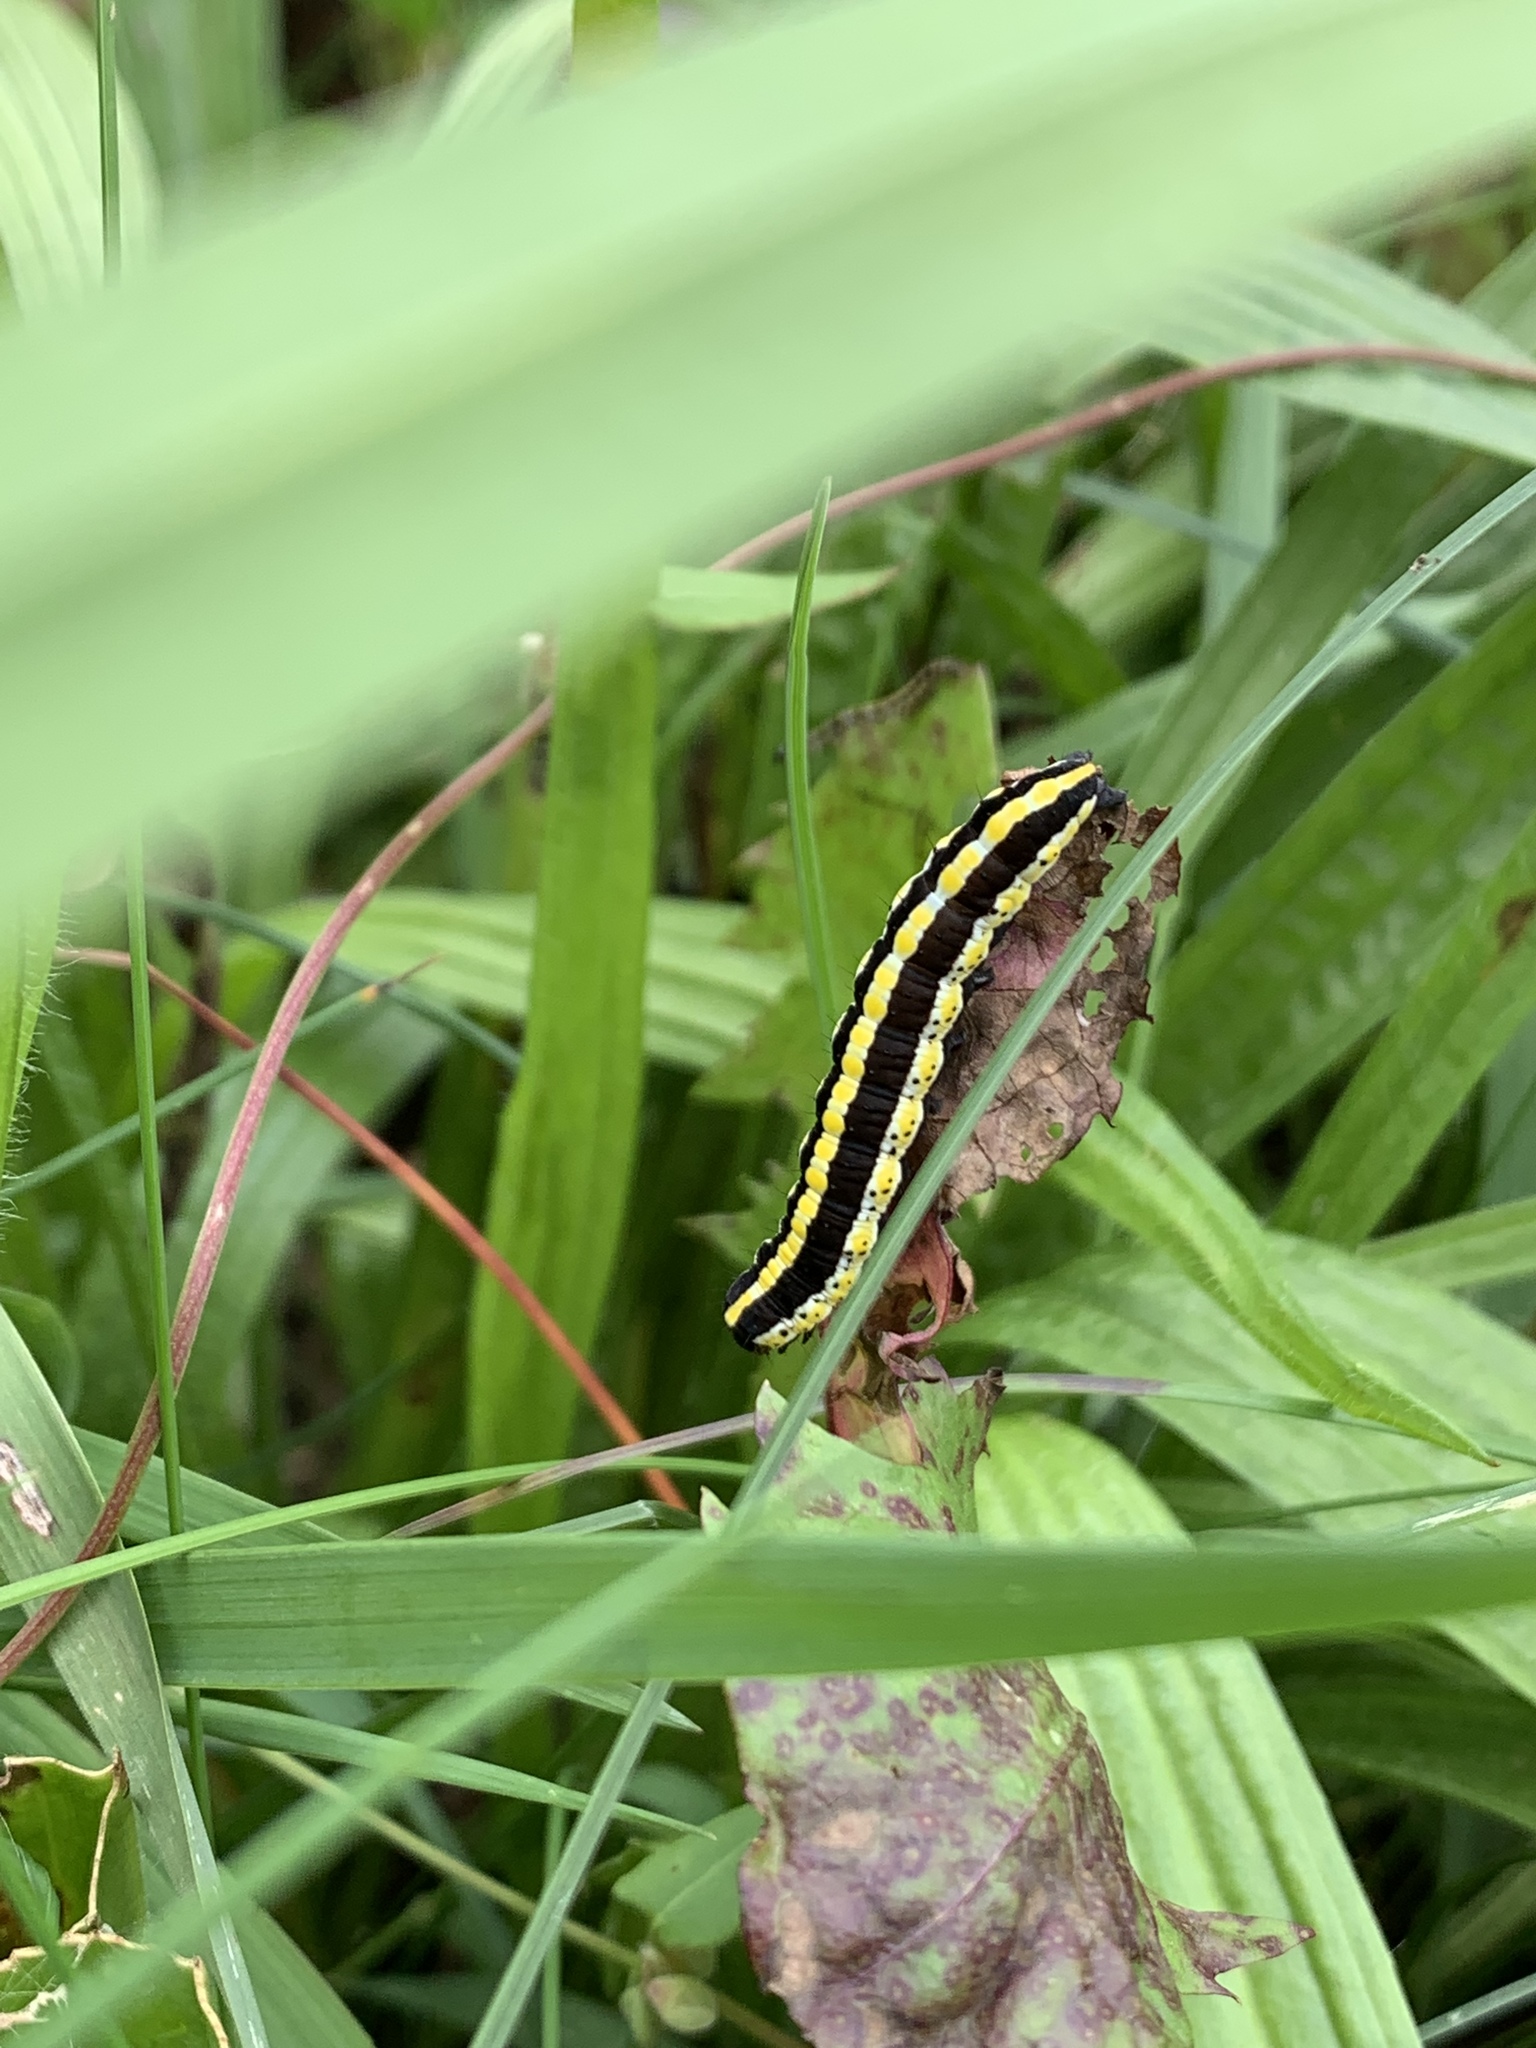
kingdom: Animalia
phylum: Arthropoda
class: Insecta
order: Lepidoptera
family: Noctuidae
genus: Cucullia
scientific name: Cucullia lucifuga
